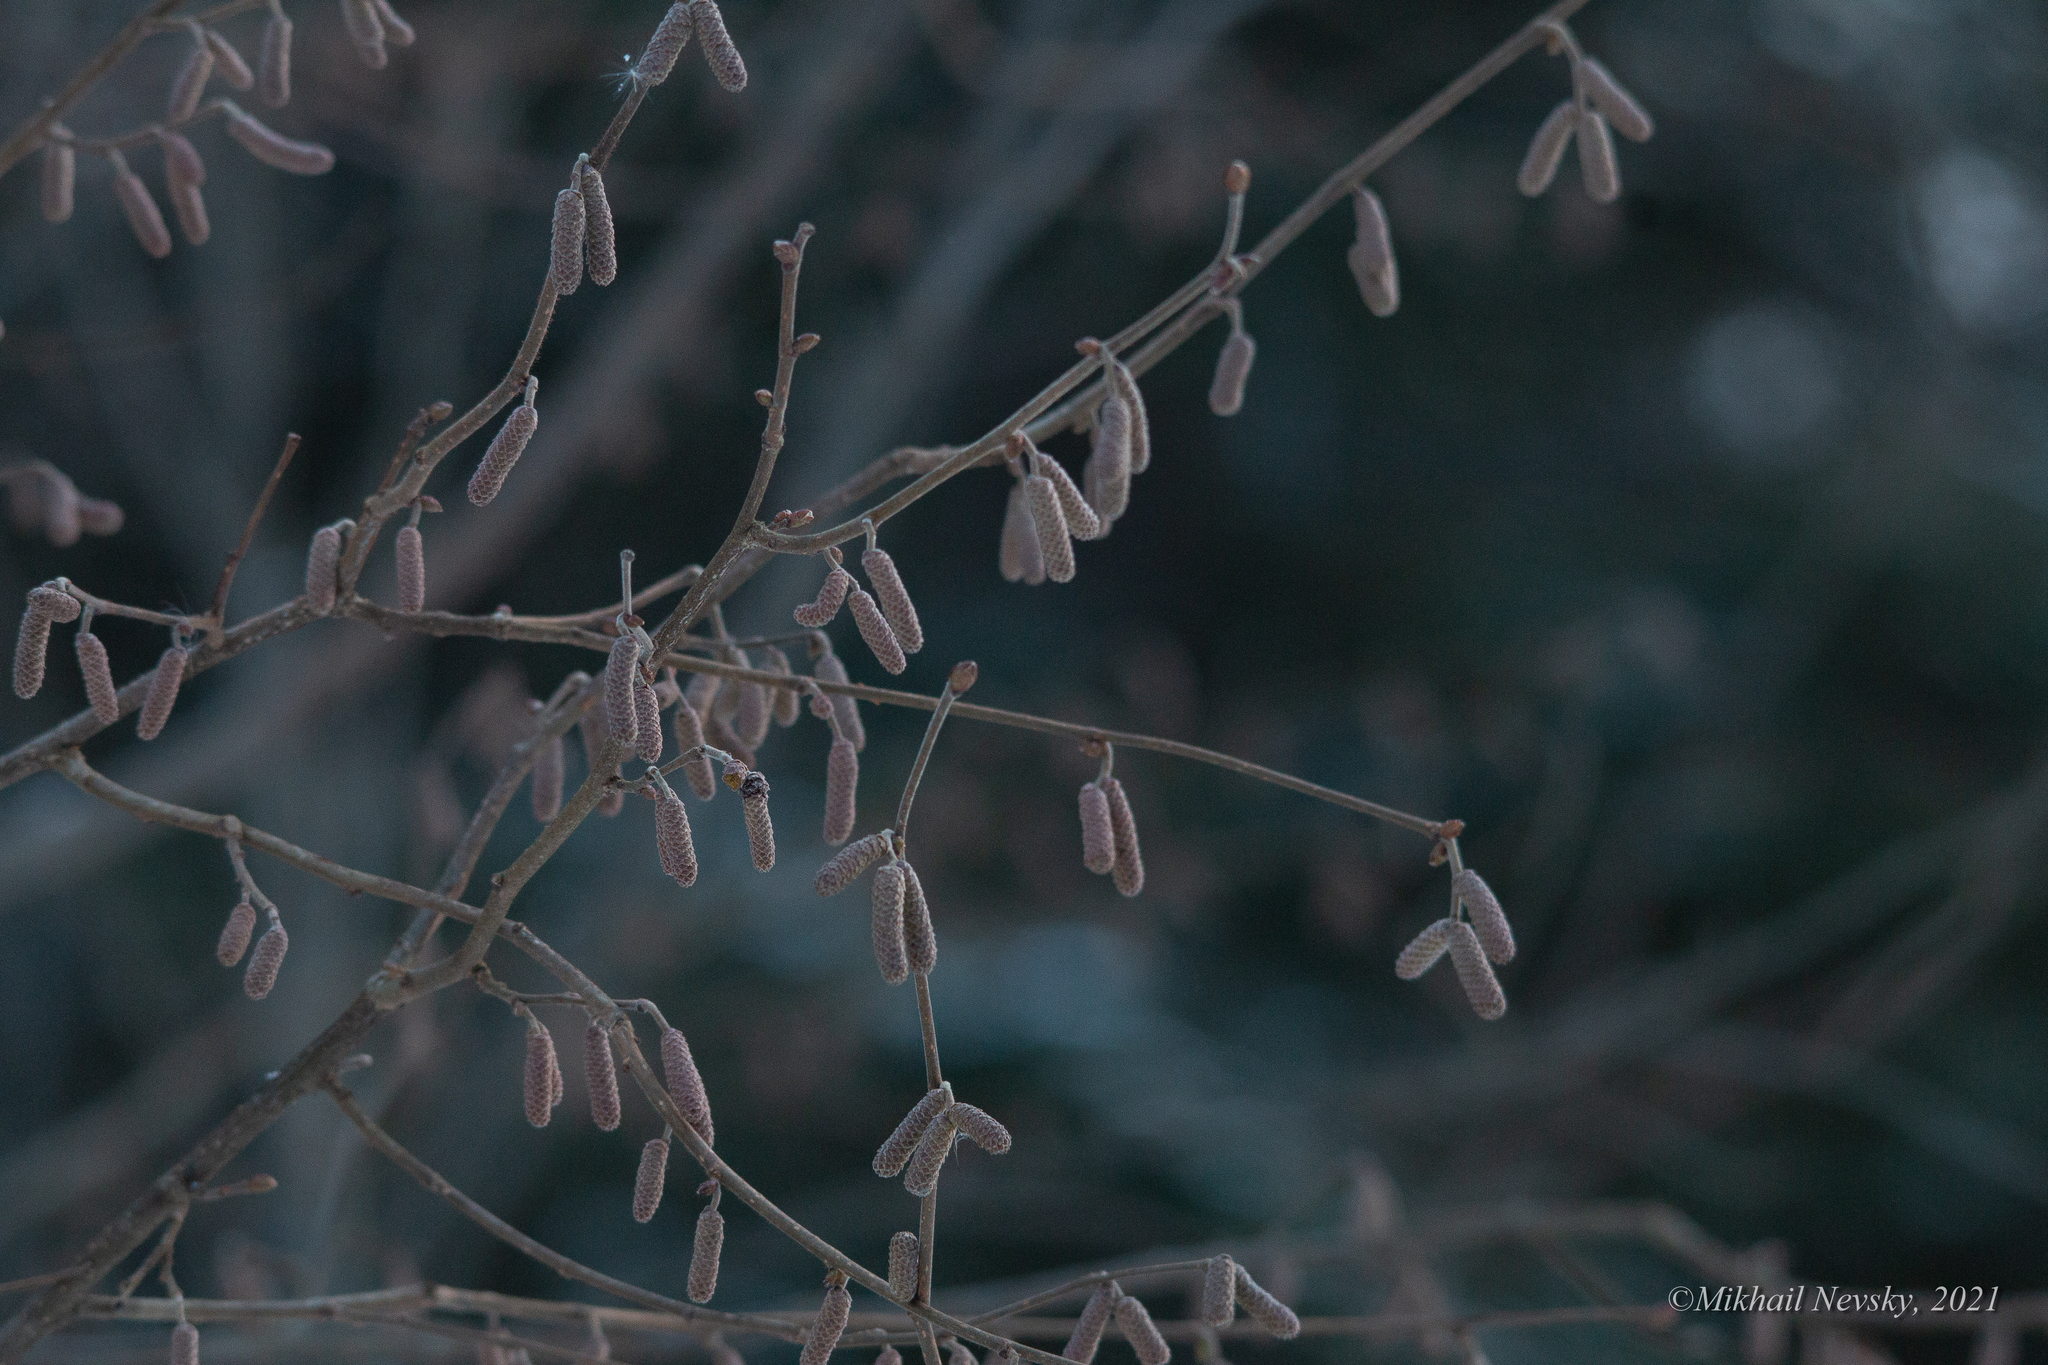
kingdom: Plantae
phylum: Tracheophyta
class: Magnoliopsida
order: Fagales
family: Betulaceae
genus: Corylus
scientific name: Corylus avellana
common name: European hazel
